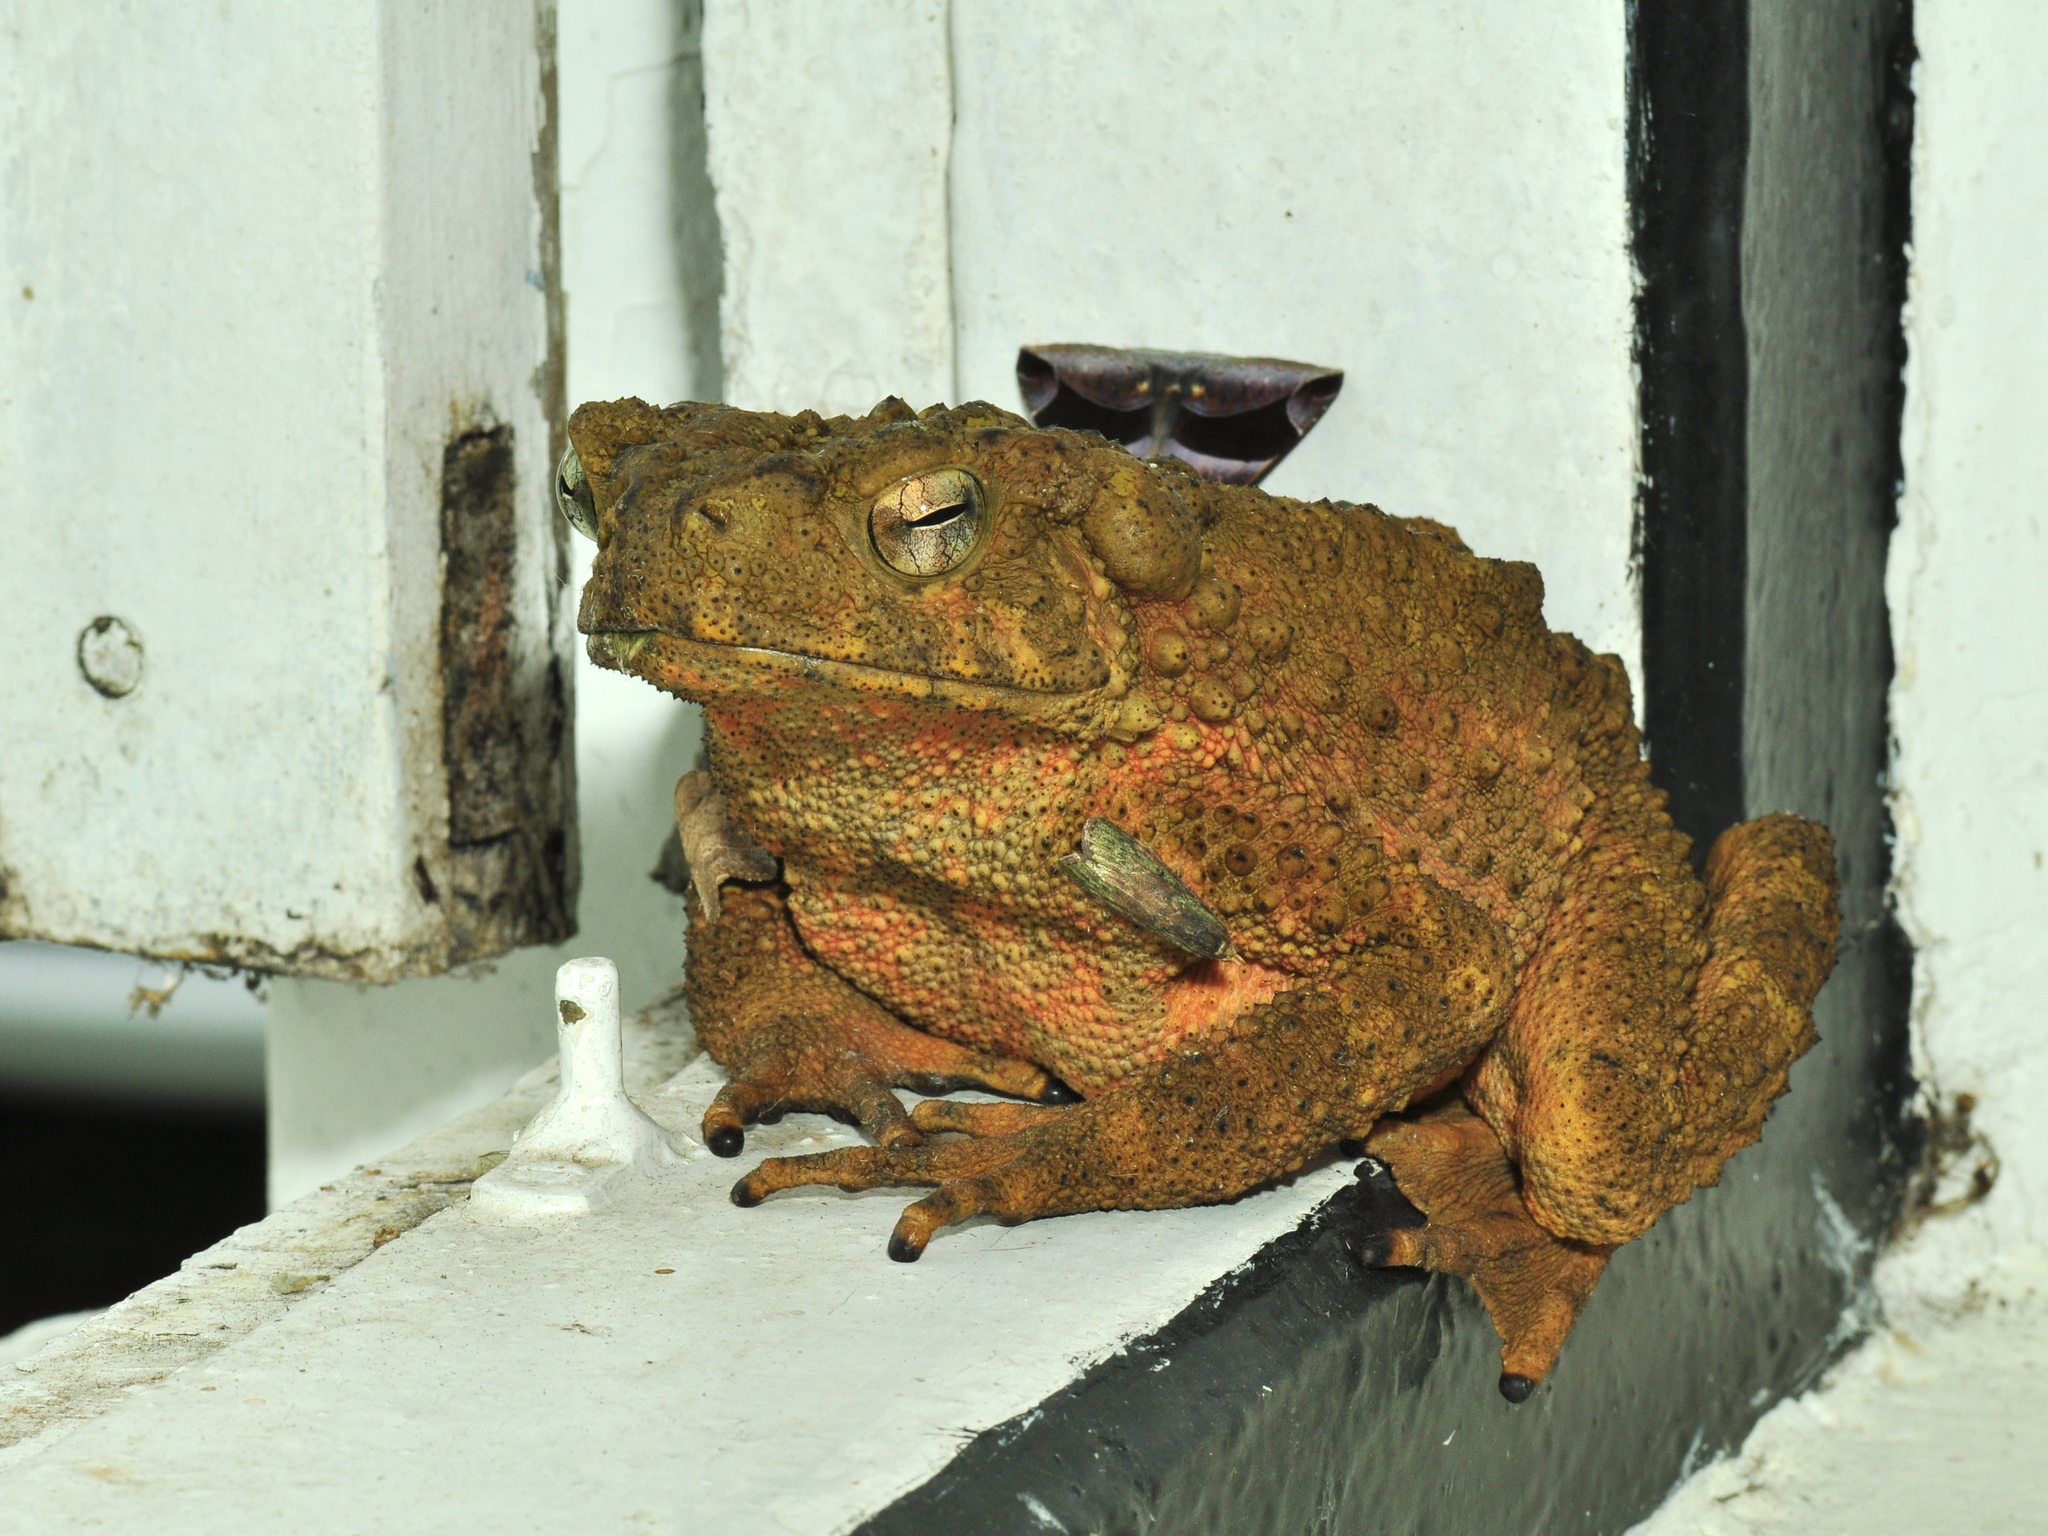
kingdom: Animalia
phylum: Chordata
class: Amphibia
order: Anura
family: Bufonidae
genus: Phrynoidis
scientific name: Phrynoidis asper
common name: Asian giant toad
